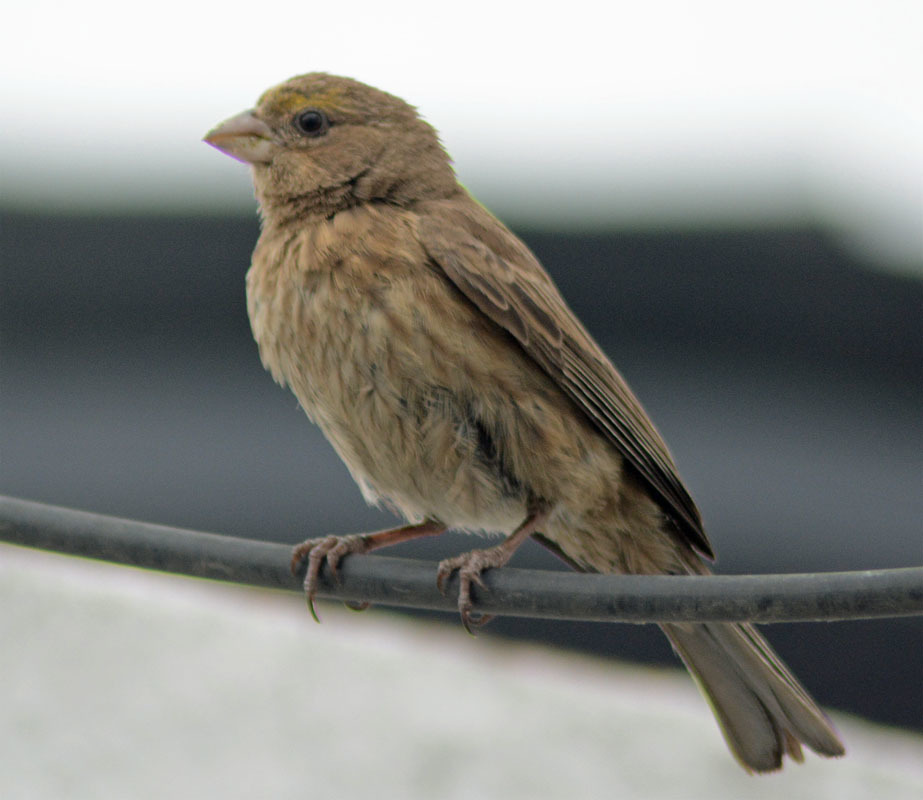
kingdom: Animalia
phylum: Chordata
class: Aves
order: Passeriformes
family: Fringillidae
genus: Haemorhous
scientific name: Haemorhous mexicanus
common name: House finch
